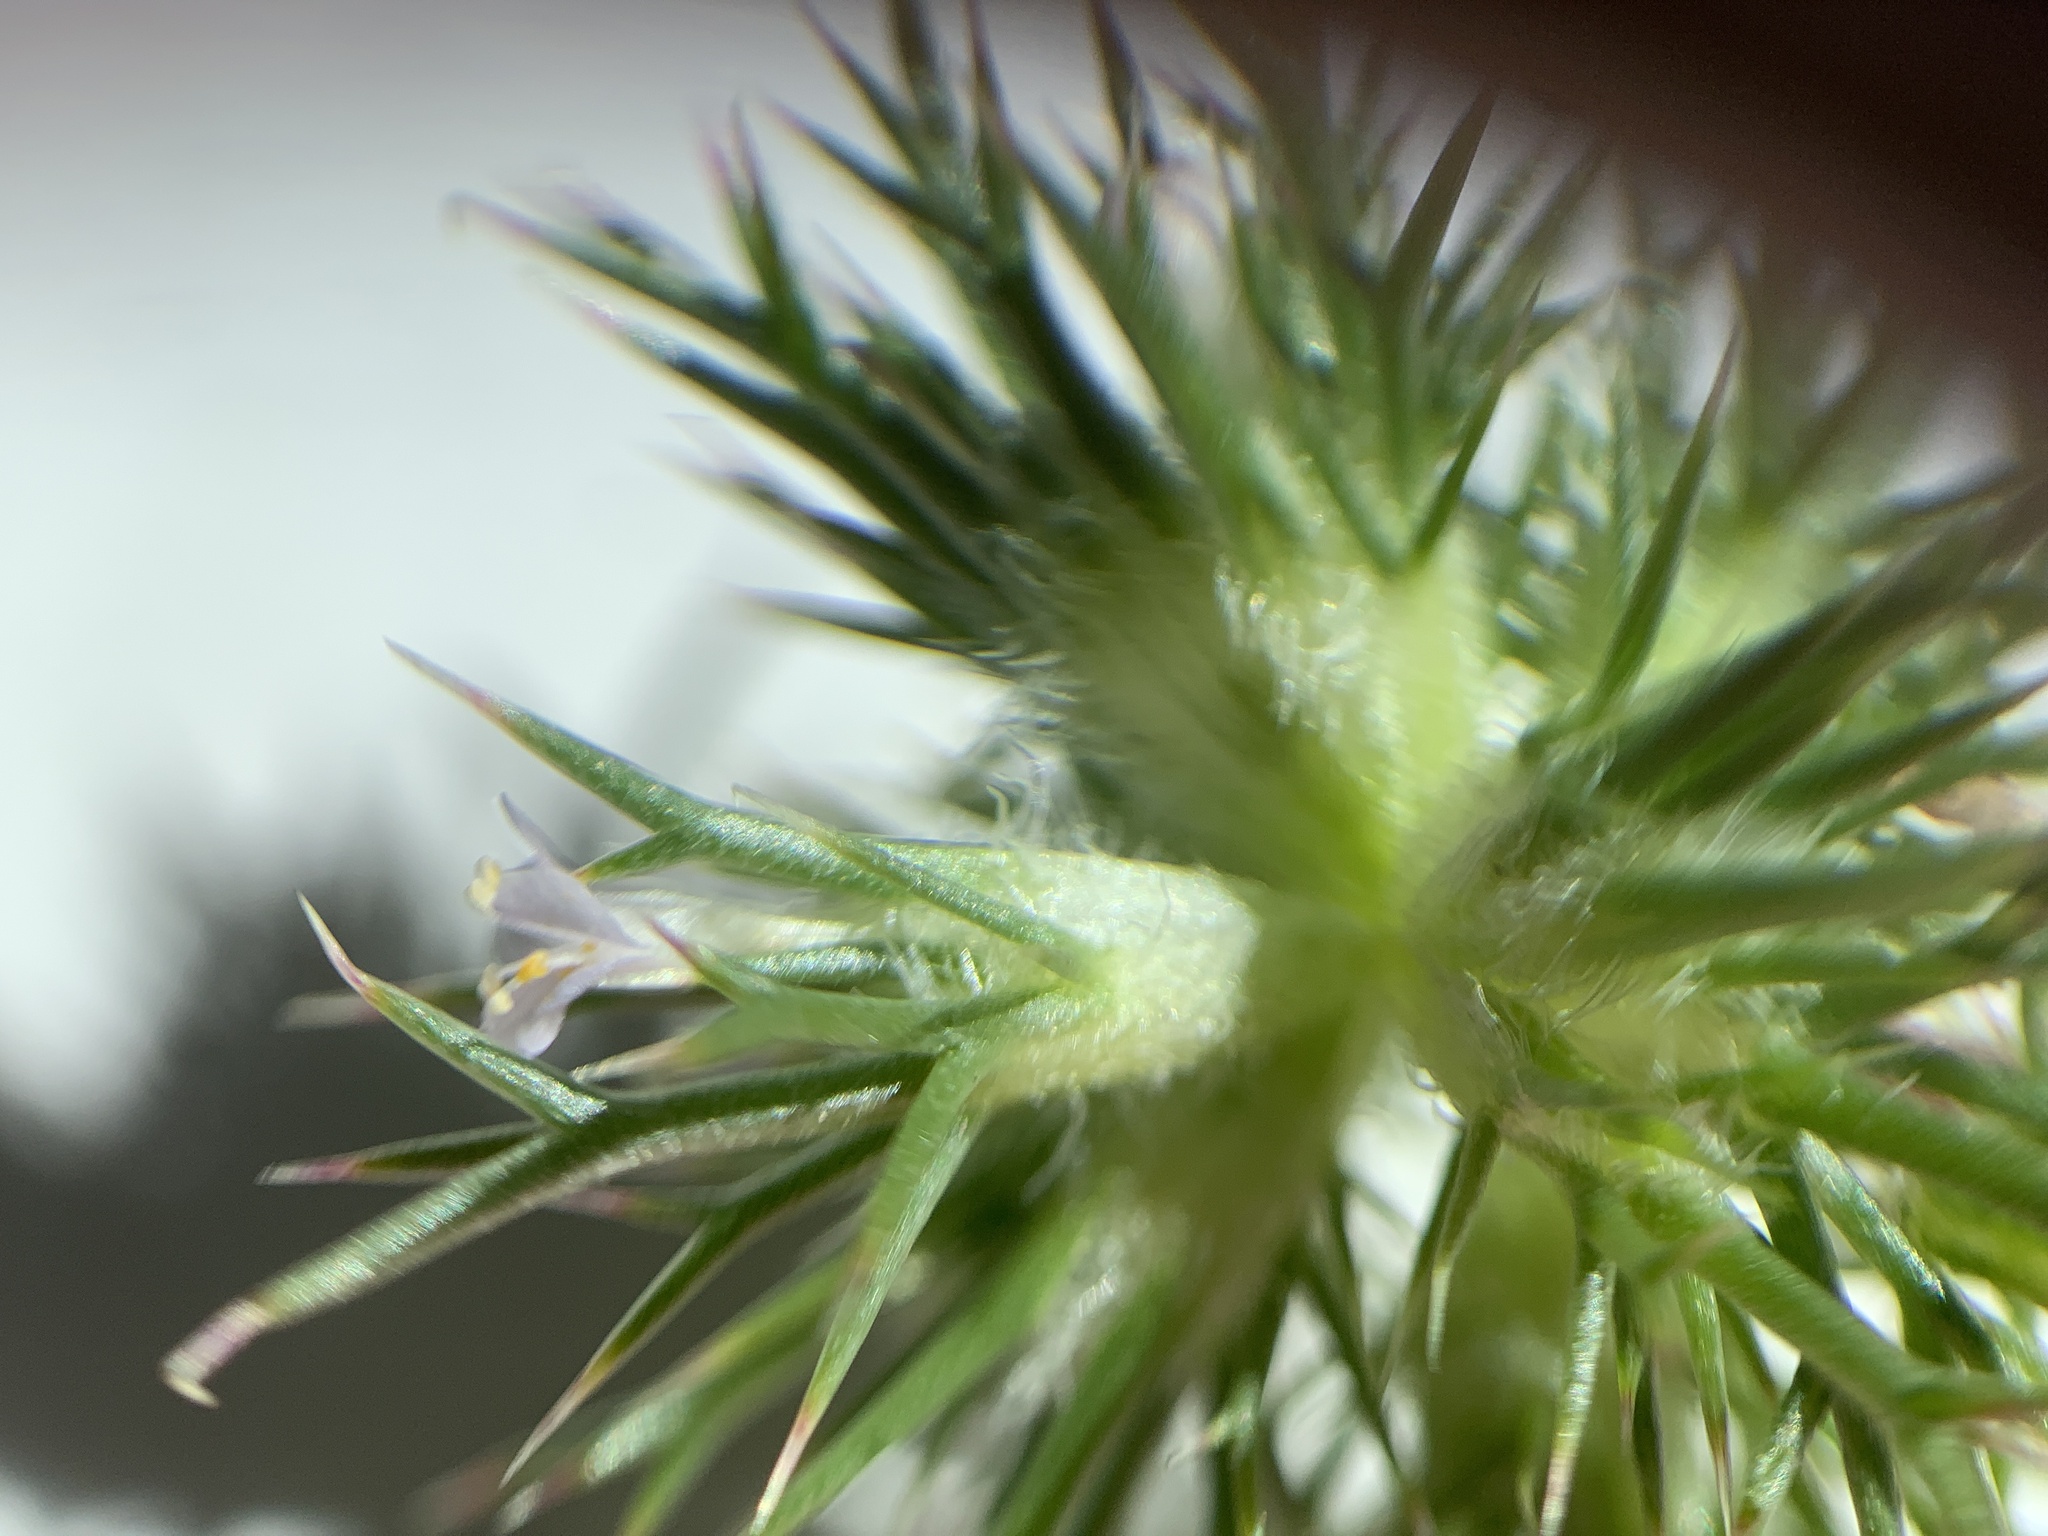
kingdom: Plantae
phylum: Tracheophyta
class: Magnoliopsida
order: Ericales
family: Polemoniaceae
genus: Navarretia
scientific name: Navarretia intertexta
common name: Needle-leaved navarretia
